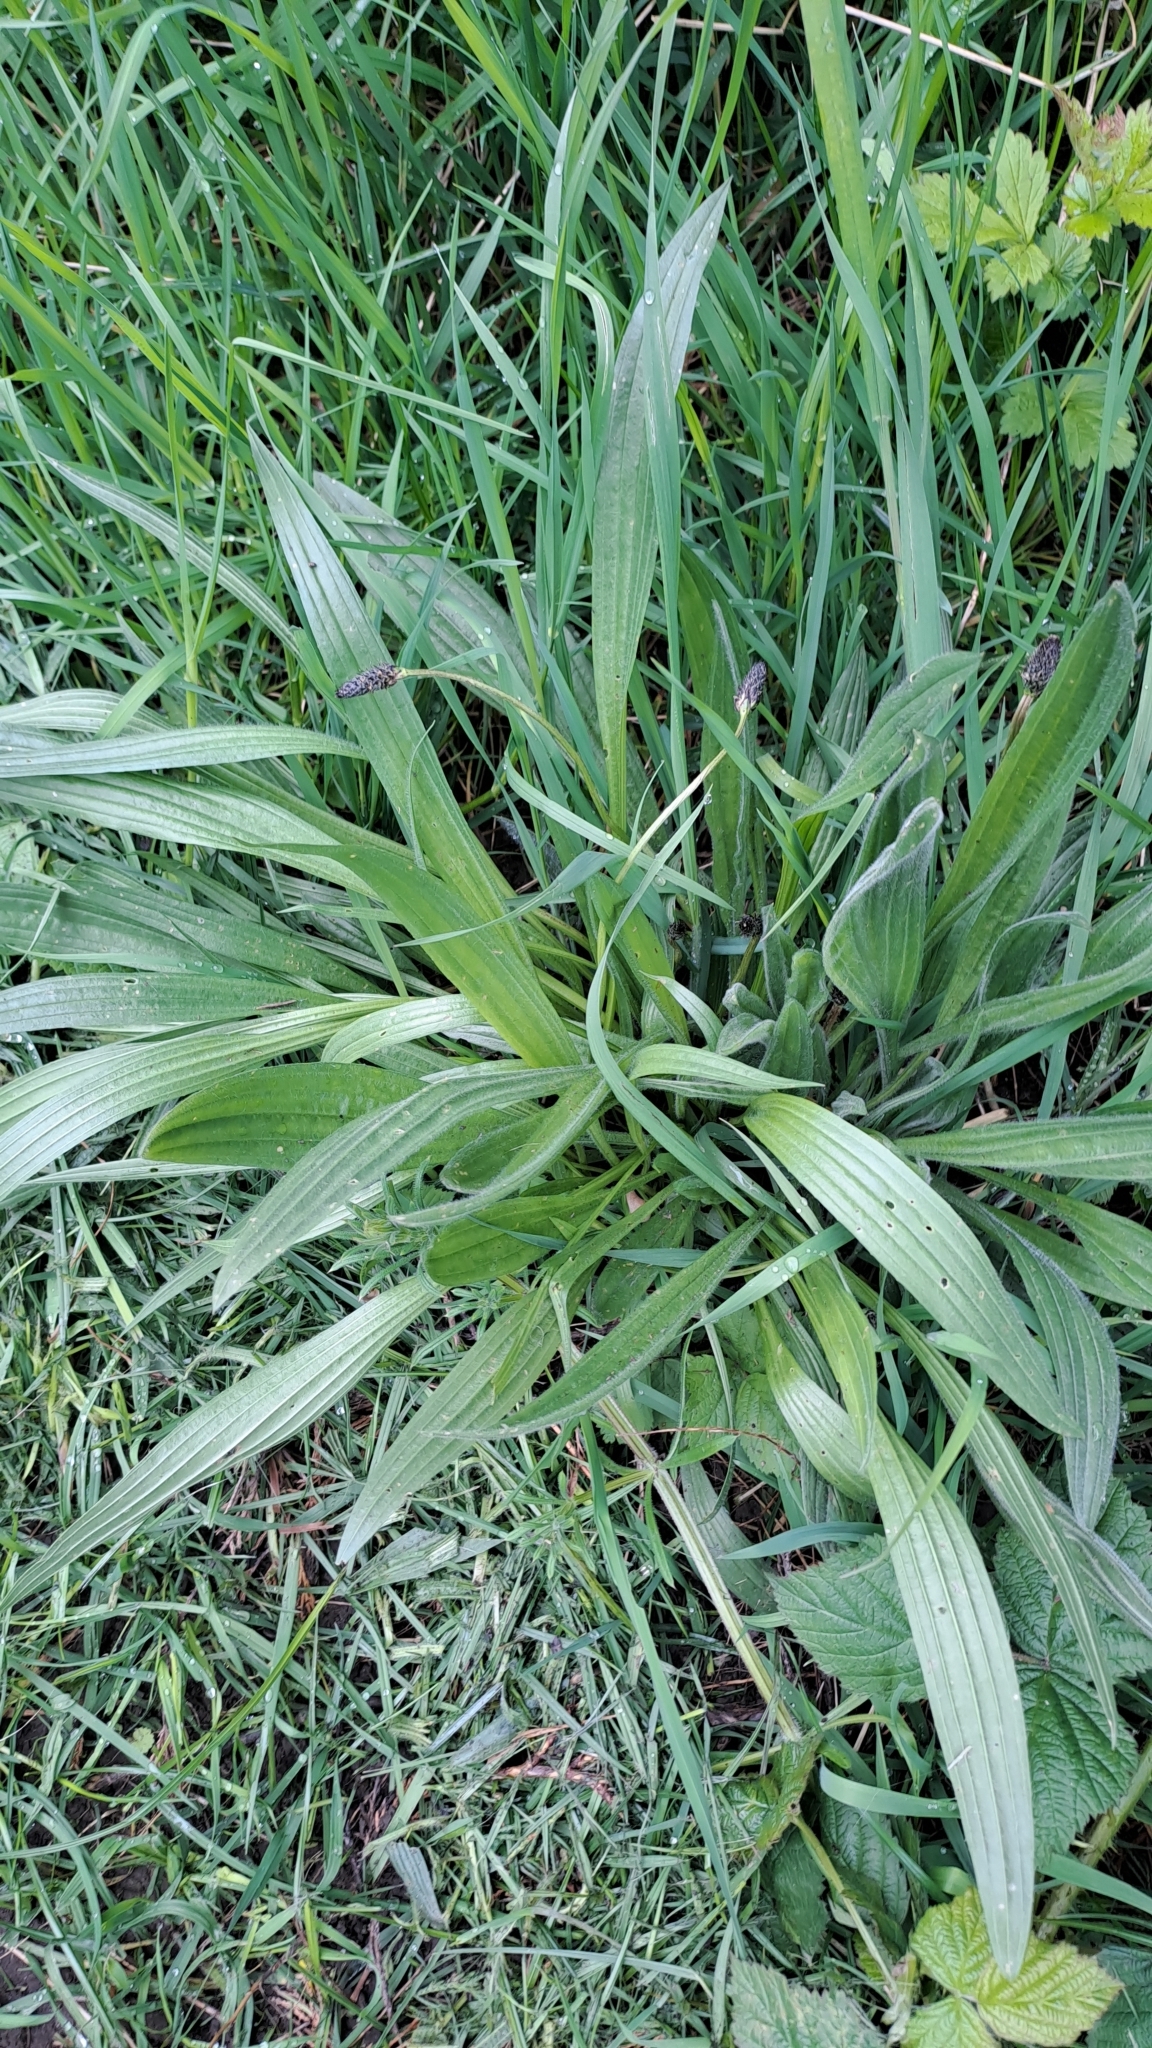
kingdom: Plantae
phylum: Tracheophyta
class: Magnoliopsida
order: Lamiales
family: Plantaginaceae
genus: Plantago
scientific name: Plantago lanceolata
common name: Ribwort plantain
